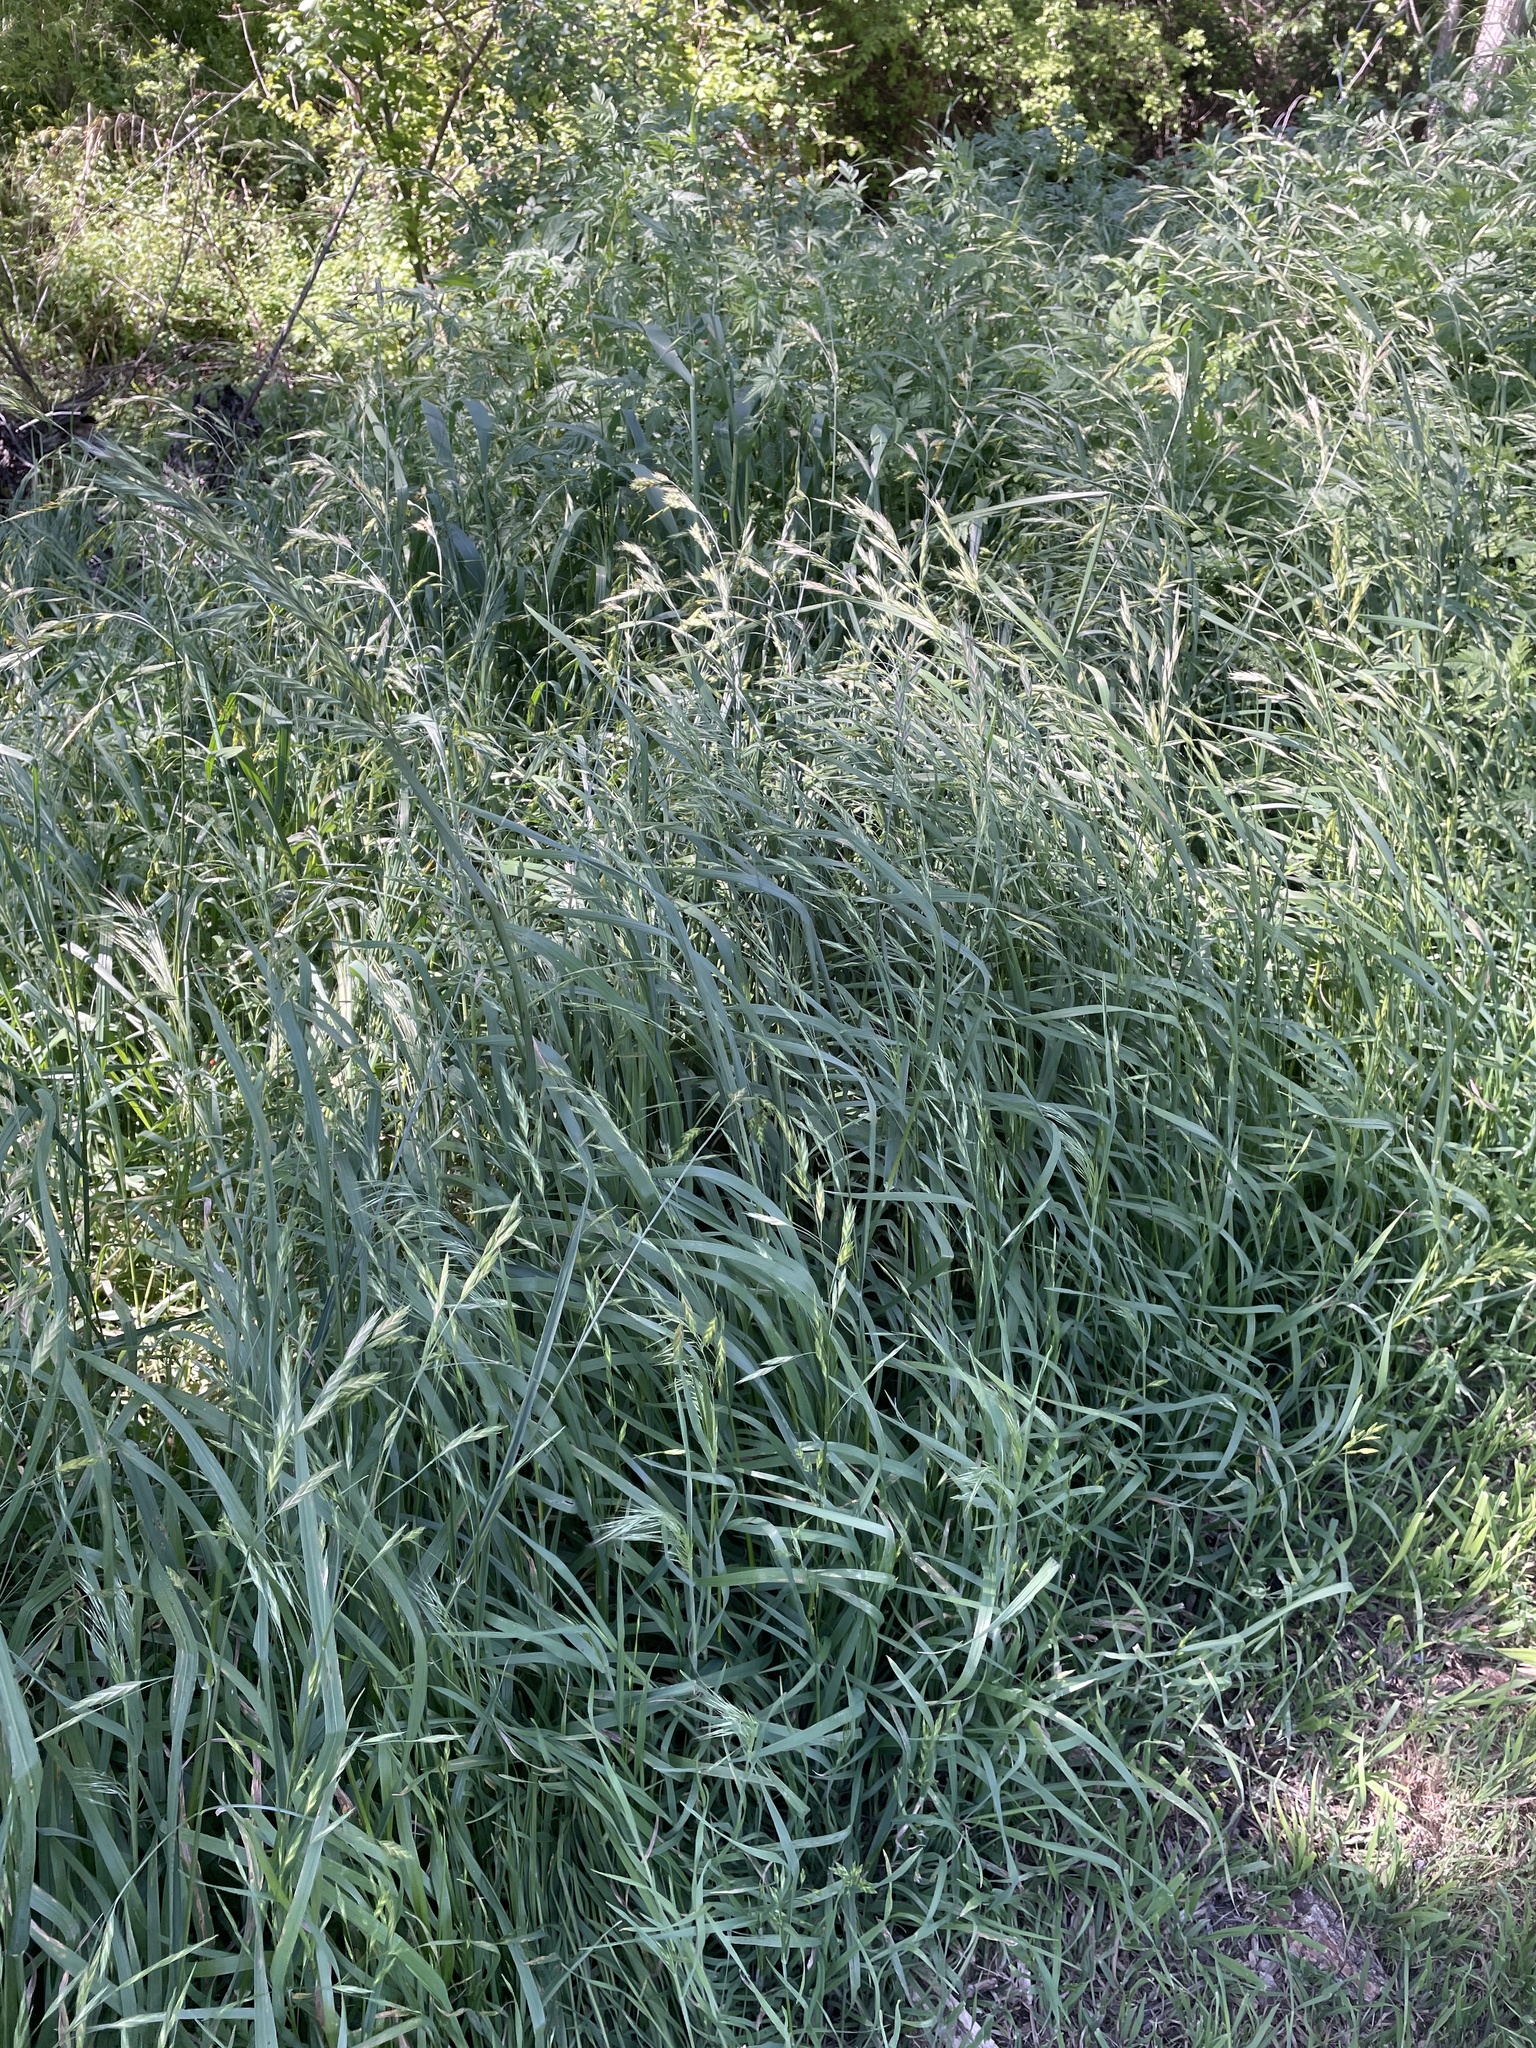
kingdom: Plantae
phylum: Tracheophyta
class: Liliopsida
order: Poales
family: Poaceae
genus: Bromus
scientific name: Bromus catharticus
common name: Rescuegrass
